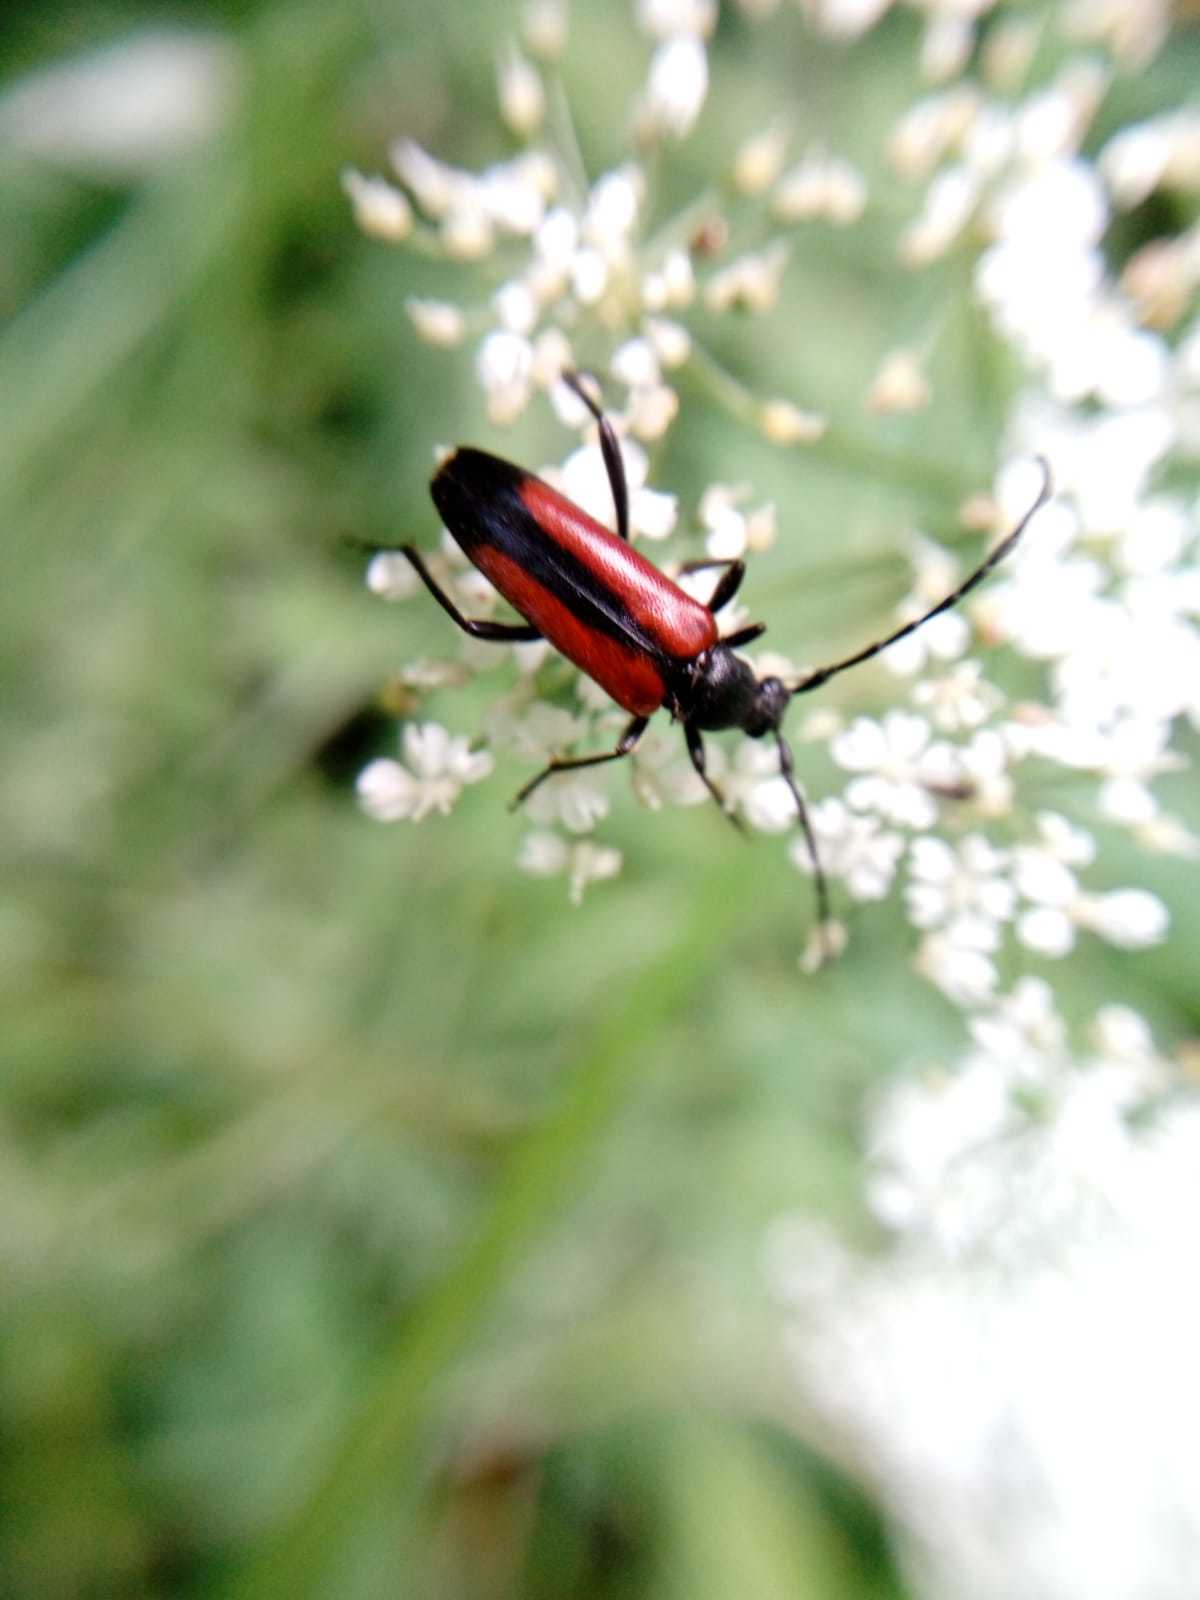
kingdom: Animalia
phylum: Arthropoda
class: Insecta
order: Coleoptera
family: Cerambycidae
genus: Stenurella
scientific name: Stenurella melanura
